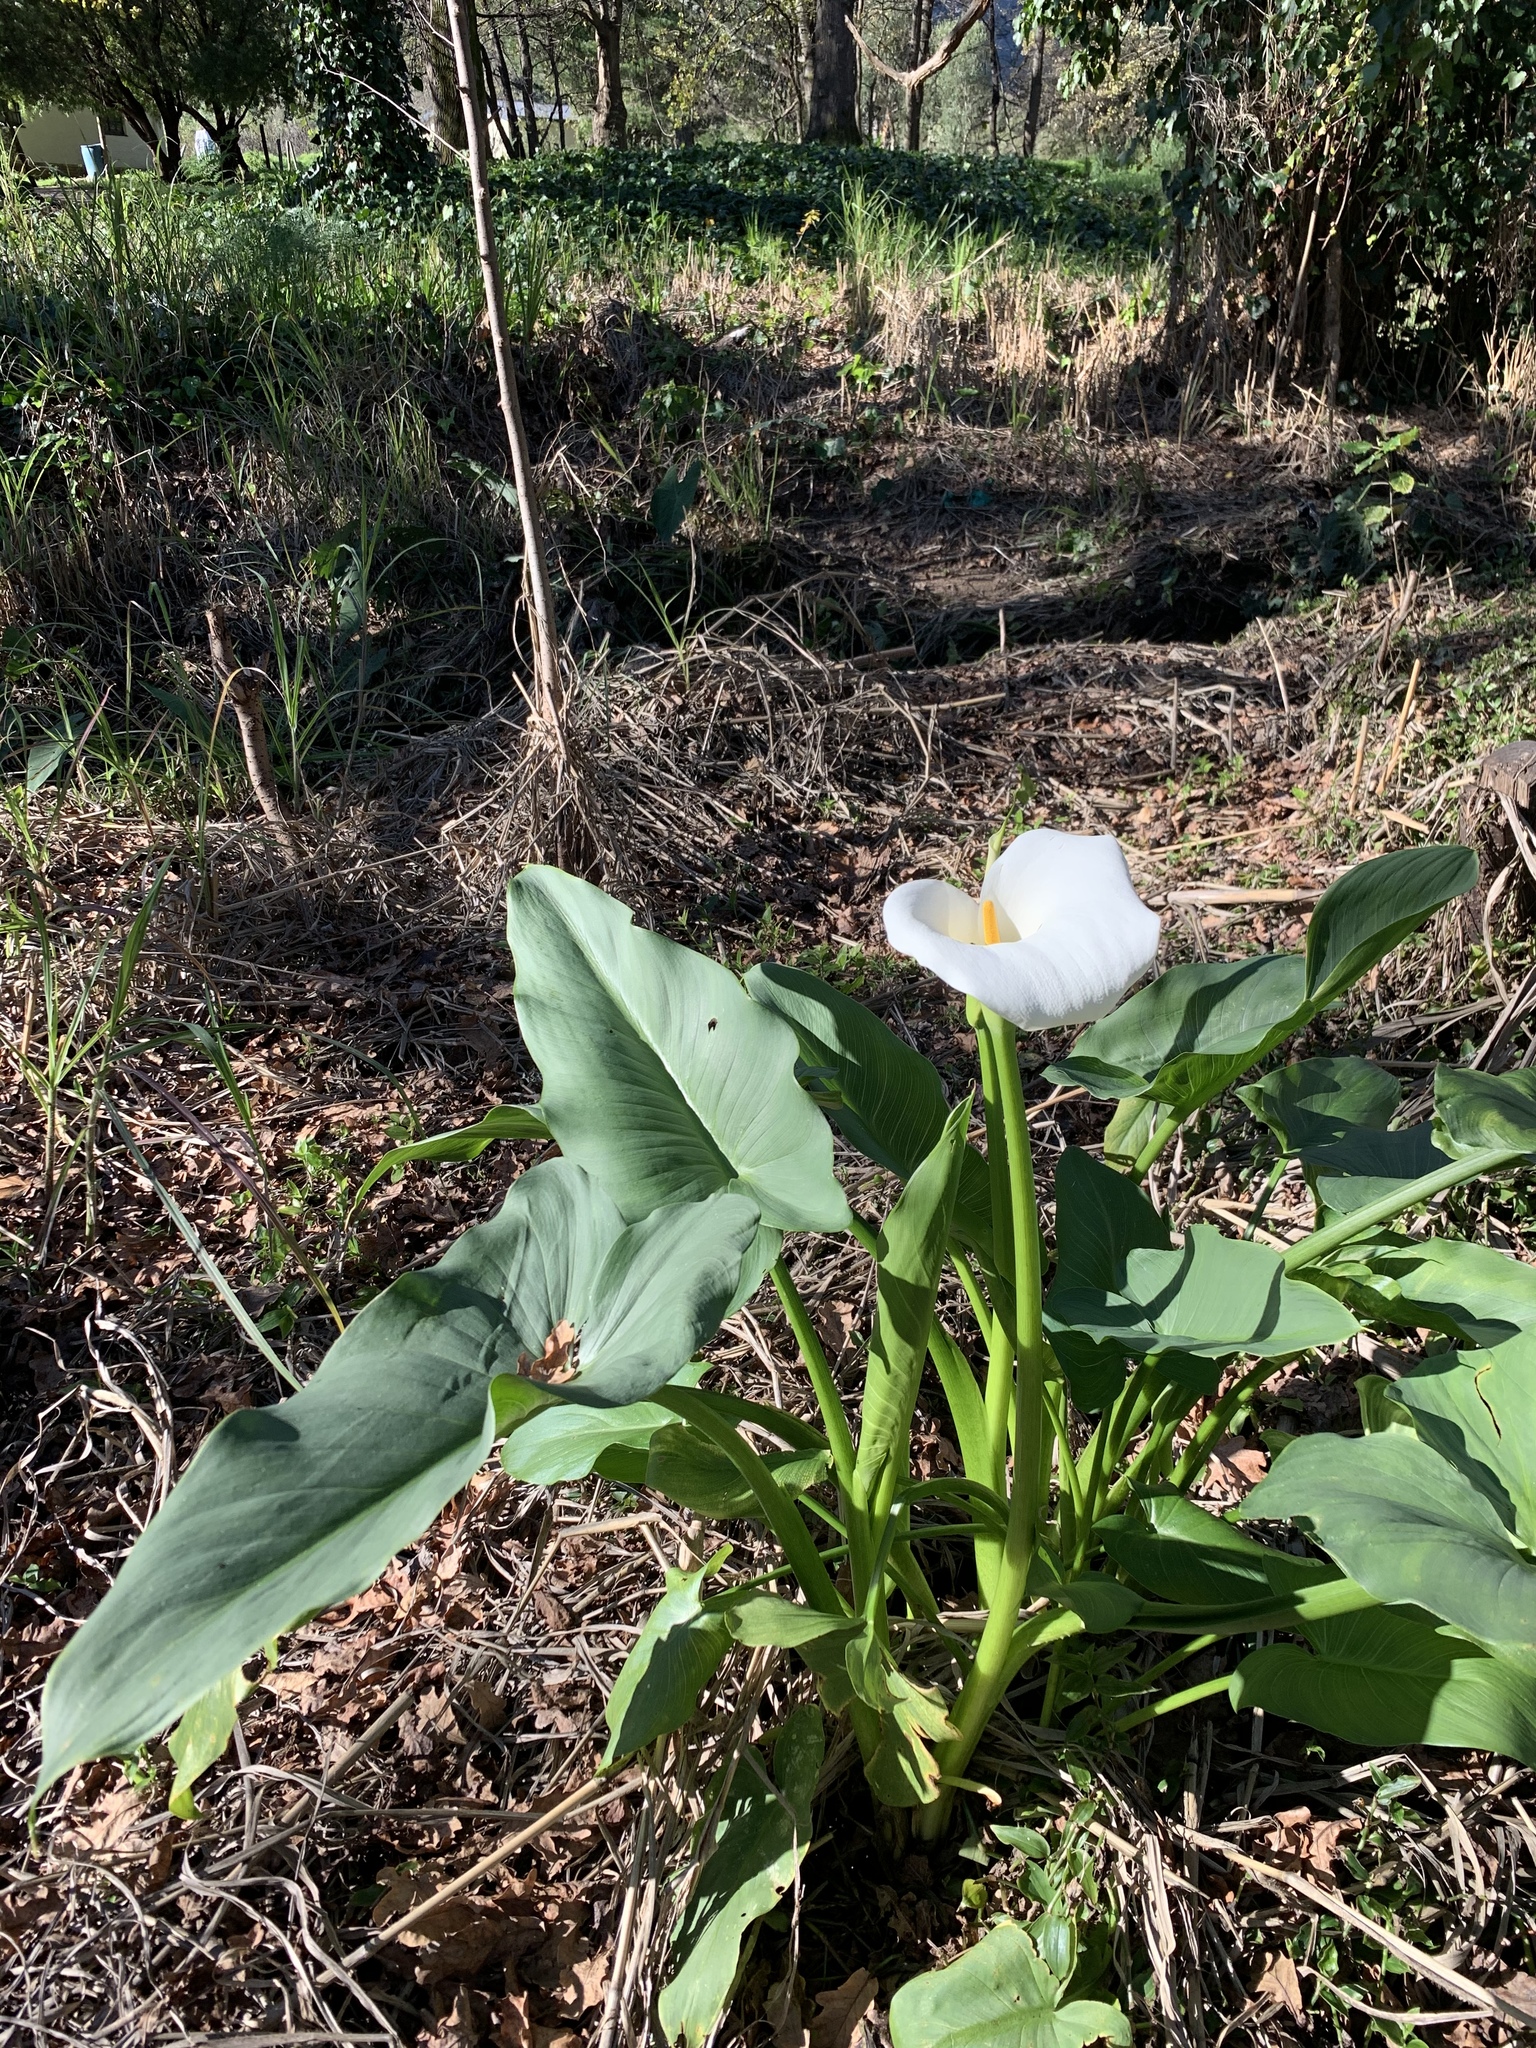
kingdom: Plantae
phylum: Tracheophyta
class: Liliopsida
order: Alismatales
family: Araceae
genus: Zantedeschia
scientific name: Zantedeschia aethiopica
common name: Altar-lily
